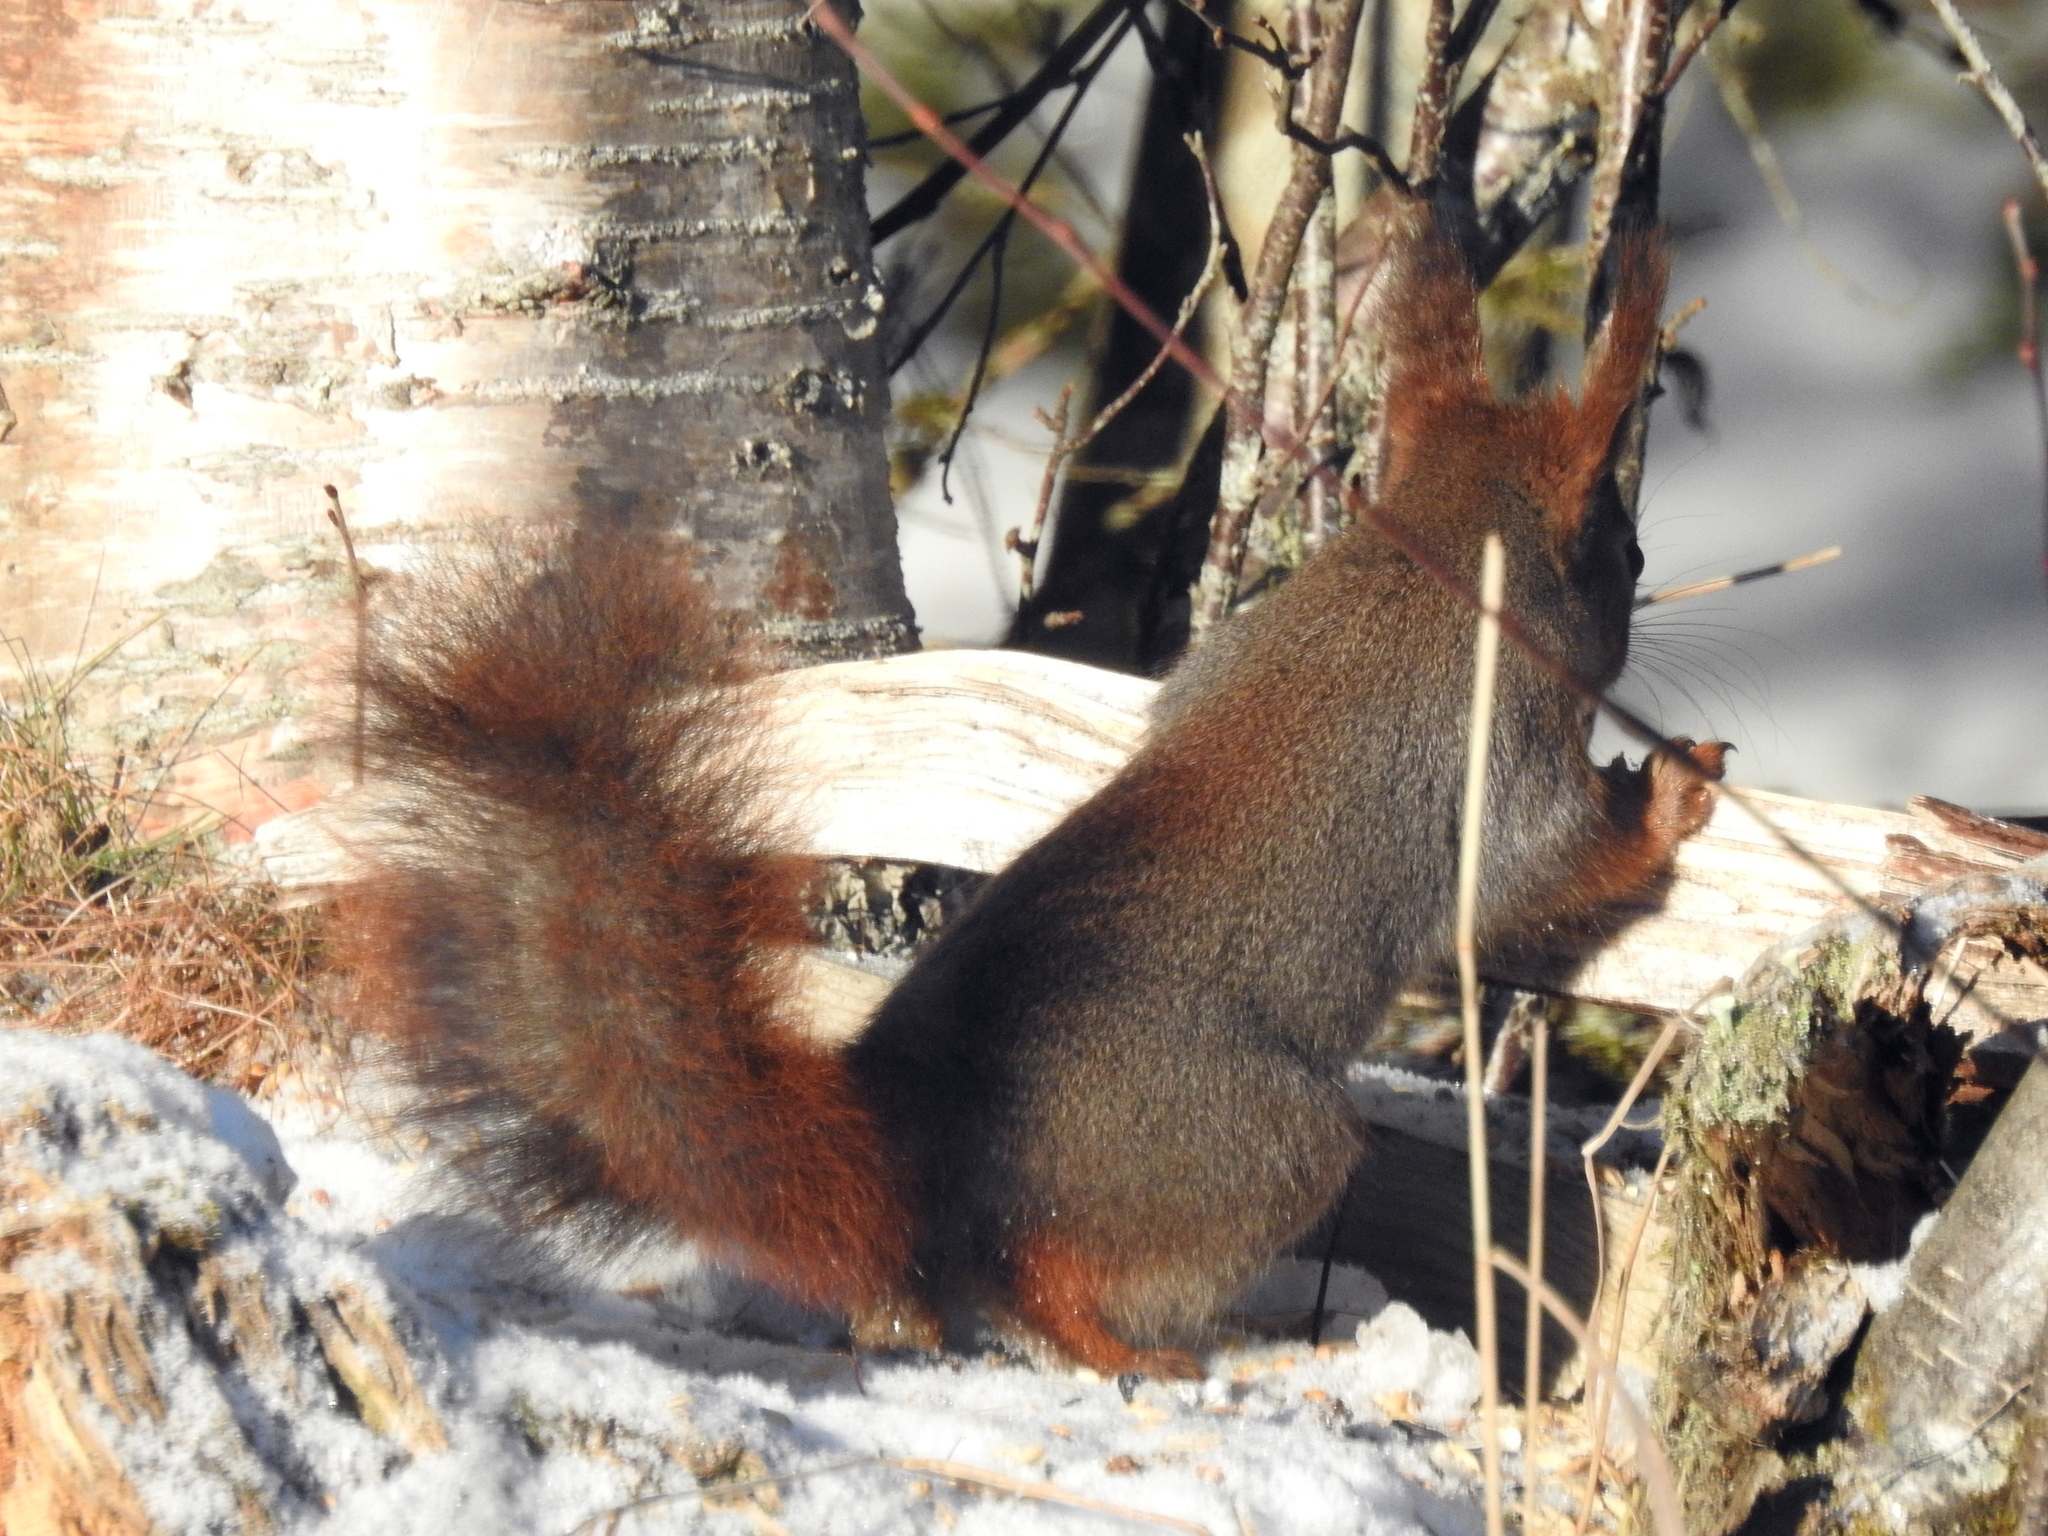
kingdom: Animalia
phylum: Chordata
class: Mammalia
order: Rodentia
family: Sciuridae
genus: Sciurus
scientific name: Sciurus vulgaris
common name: Eurasian red squirrel
